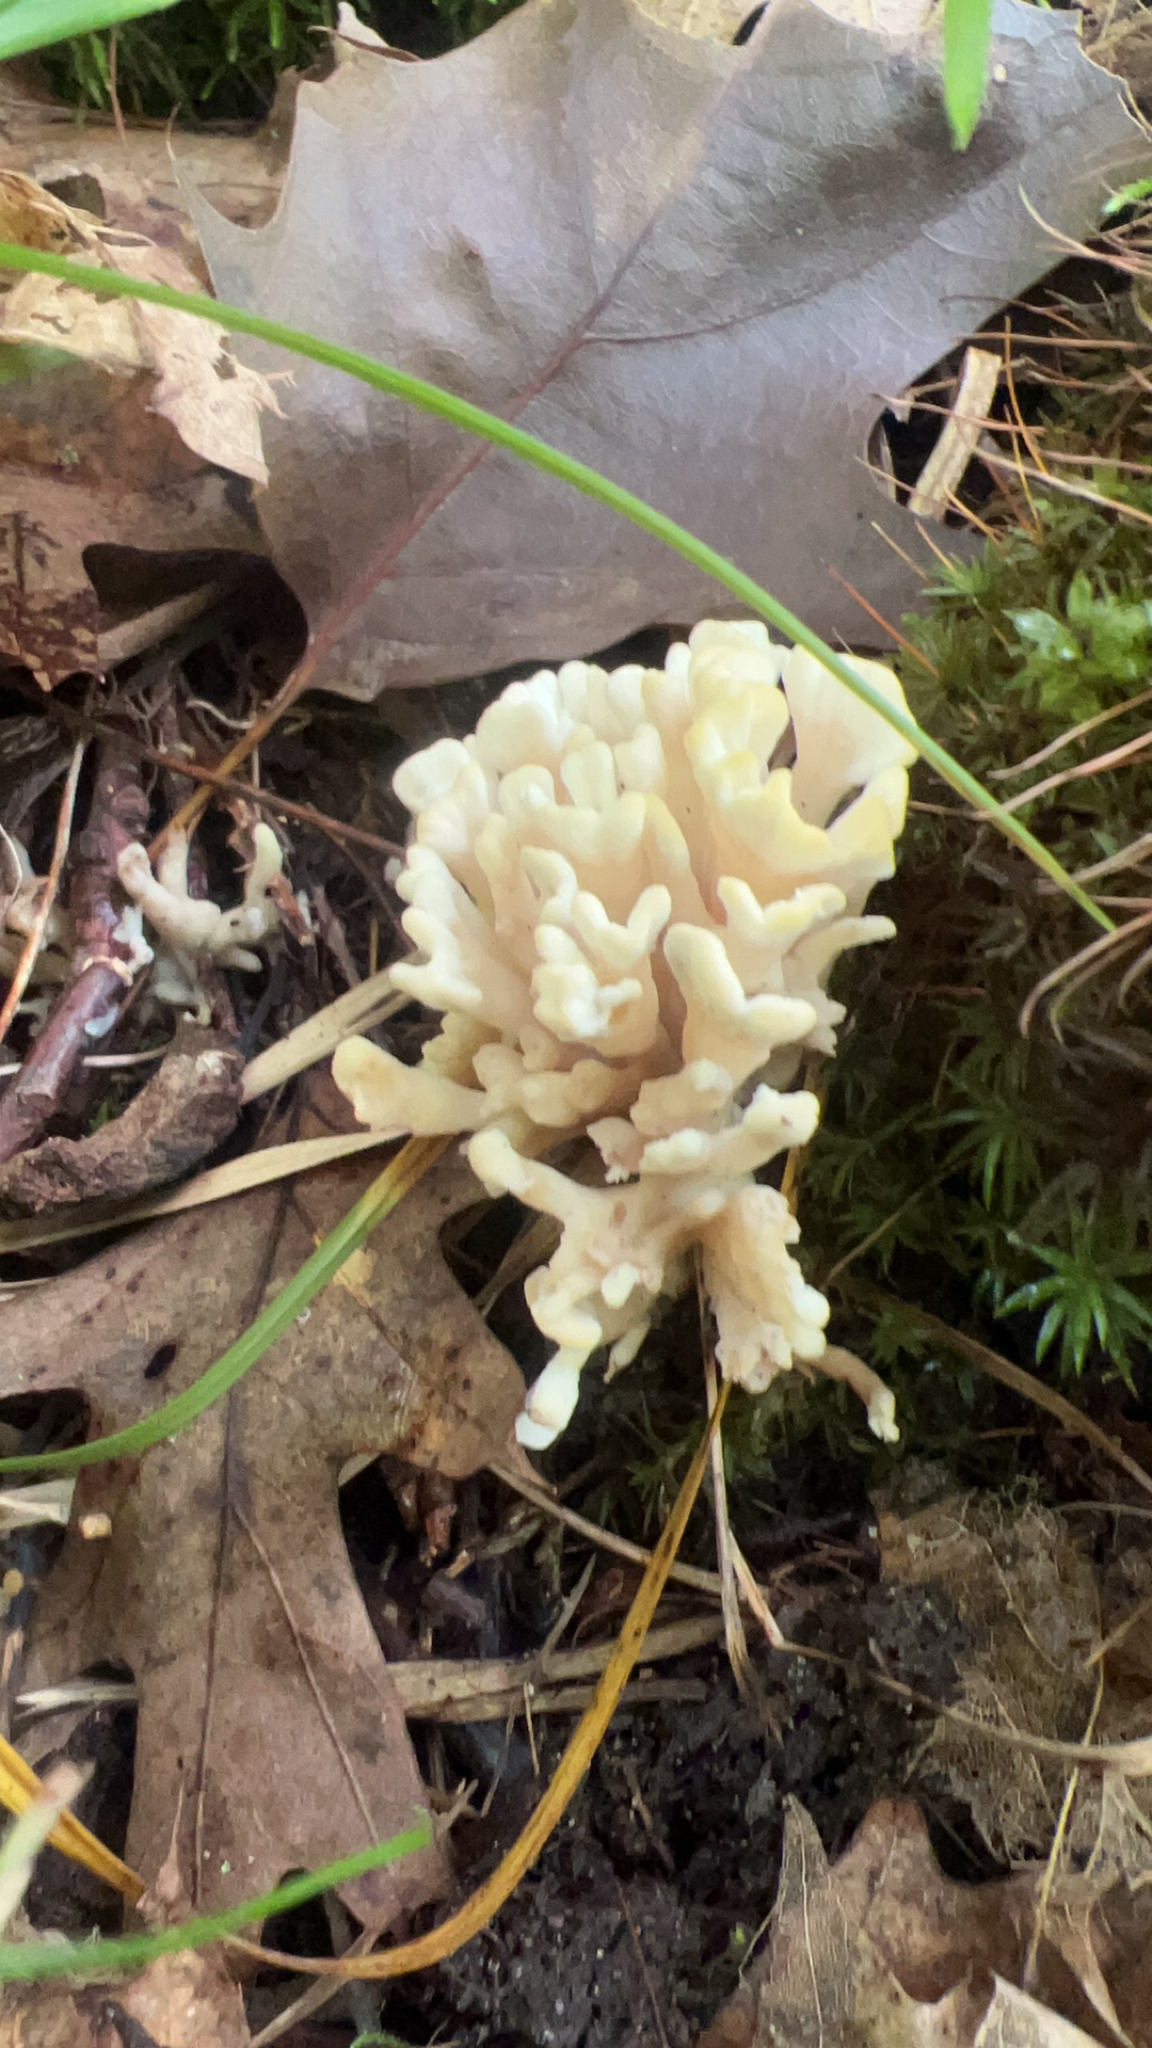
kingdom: Fungi
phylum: Basidiomycota
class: Agaricomycetes
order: Sebacinales
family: Sebacinaceae
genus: Sebacina
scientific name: Sebacina schweinitzii
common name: Jellied false coral fungus
